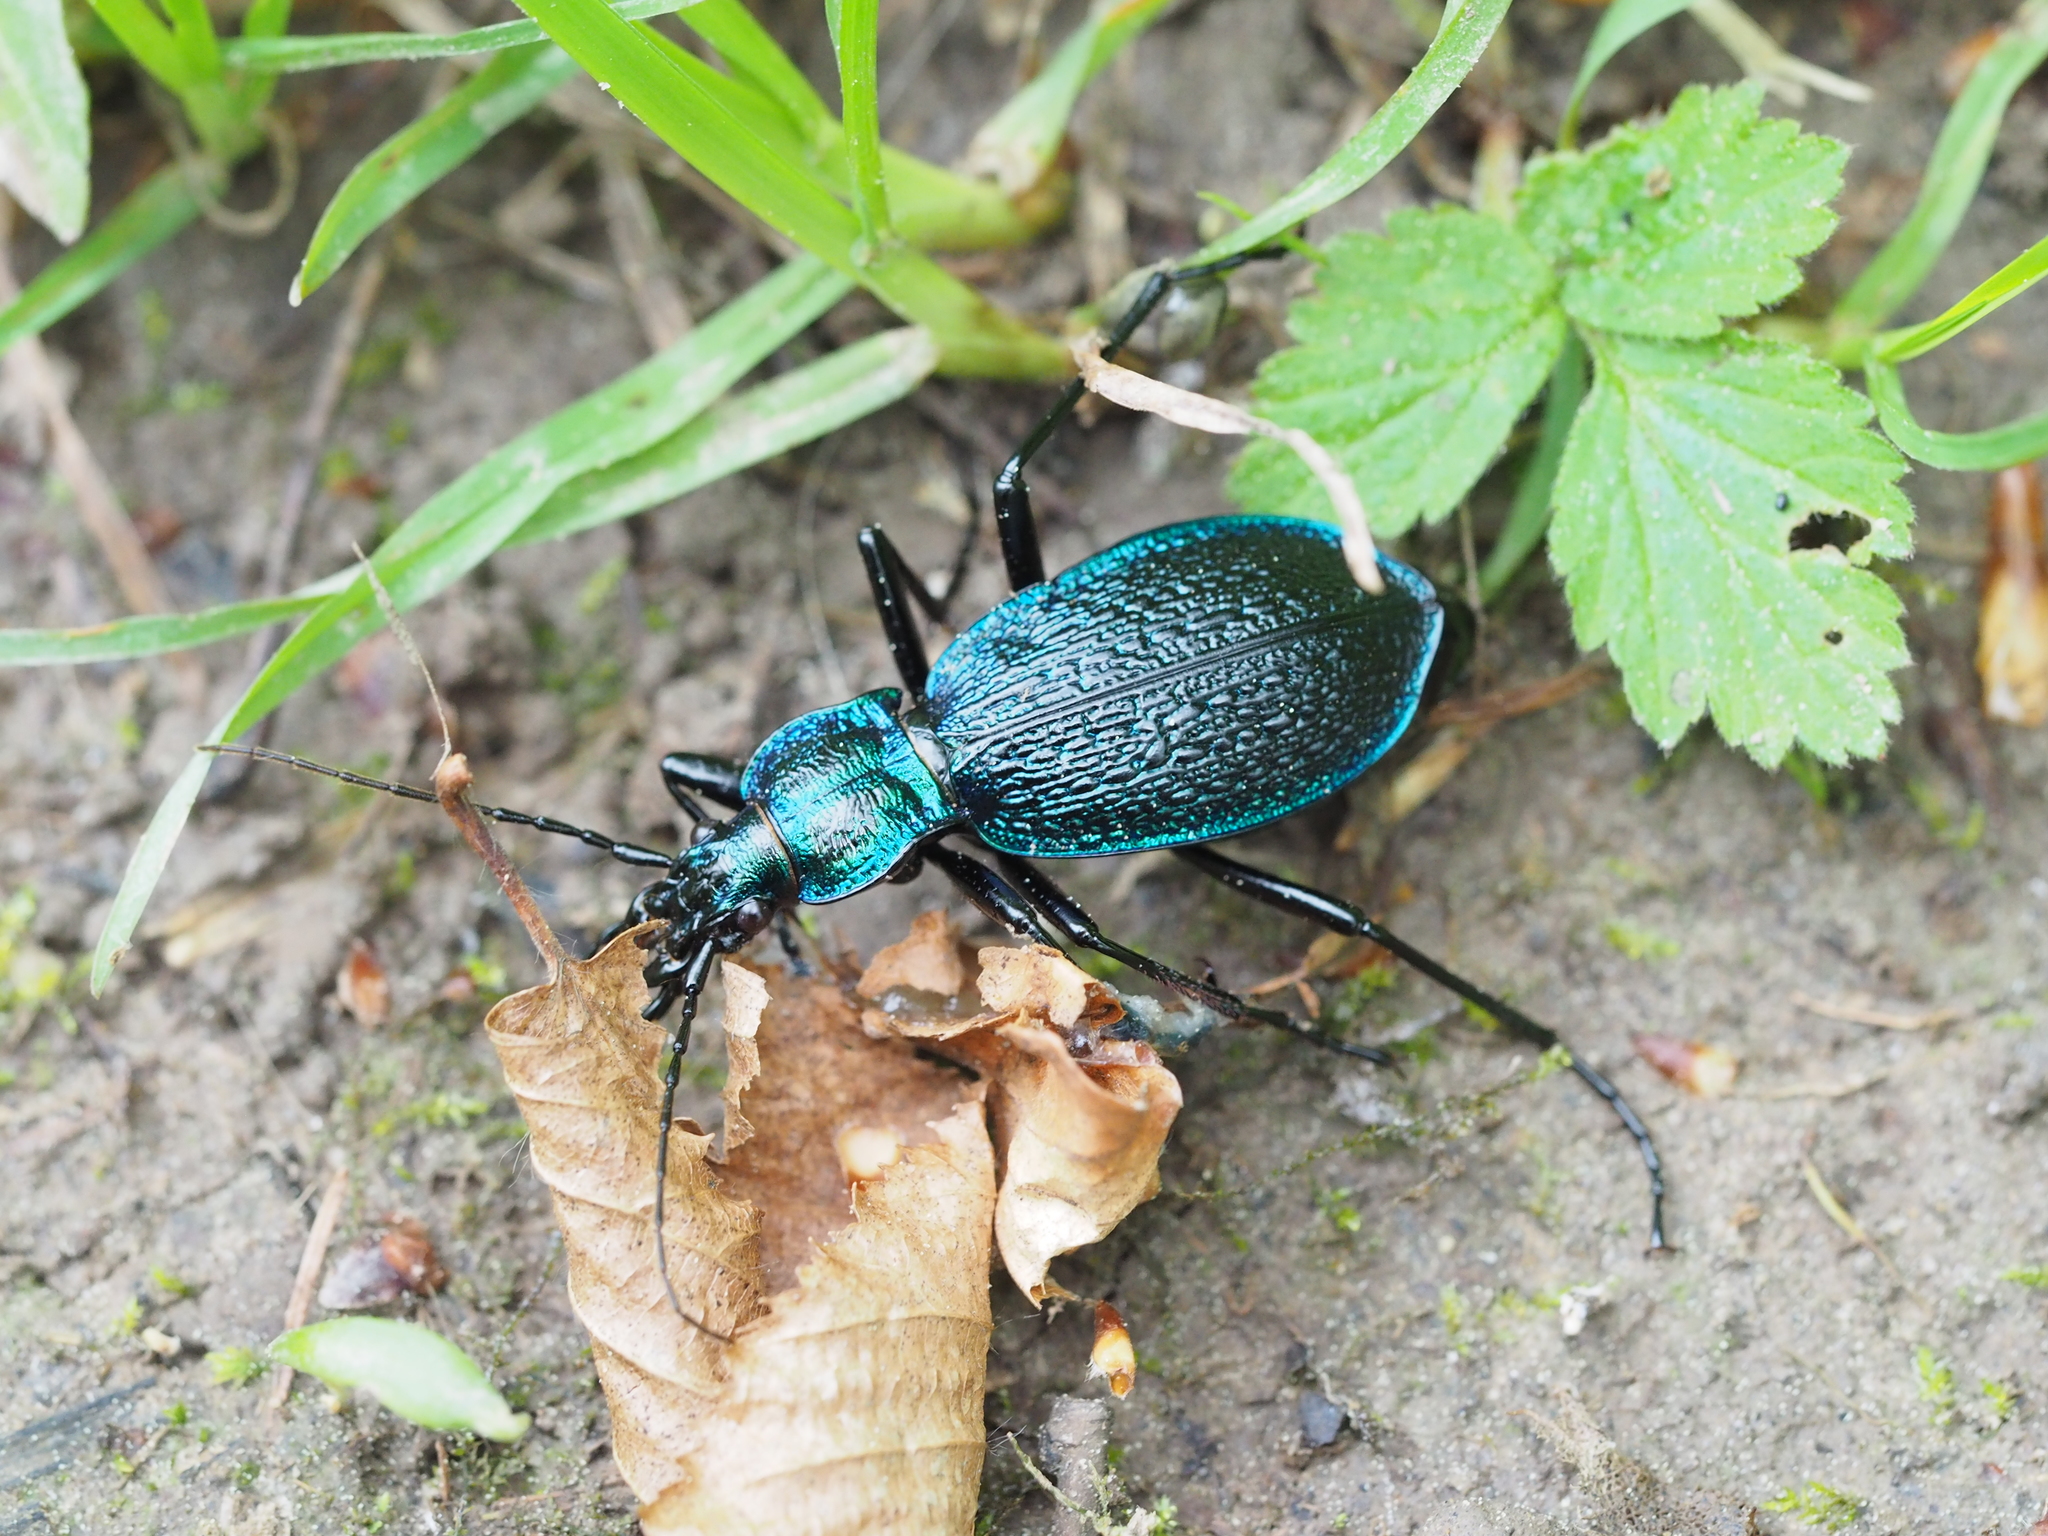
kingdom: Animalia
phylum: Arthropoda
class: Insecta
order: Coleoptera
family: Carabidae
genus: Carabus
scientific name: Carabus intricatus
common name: Blue ground beetle
